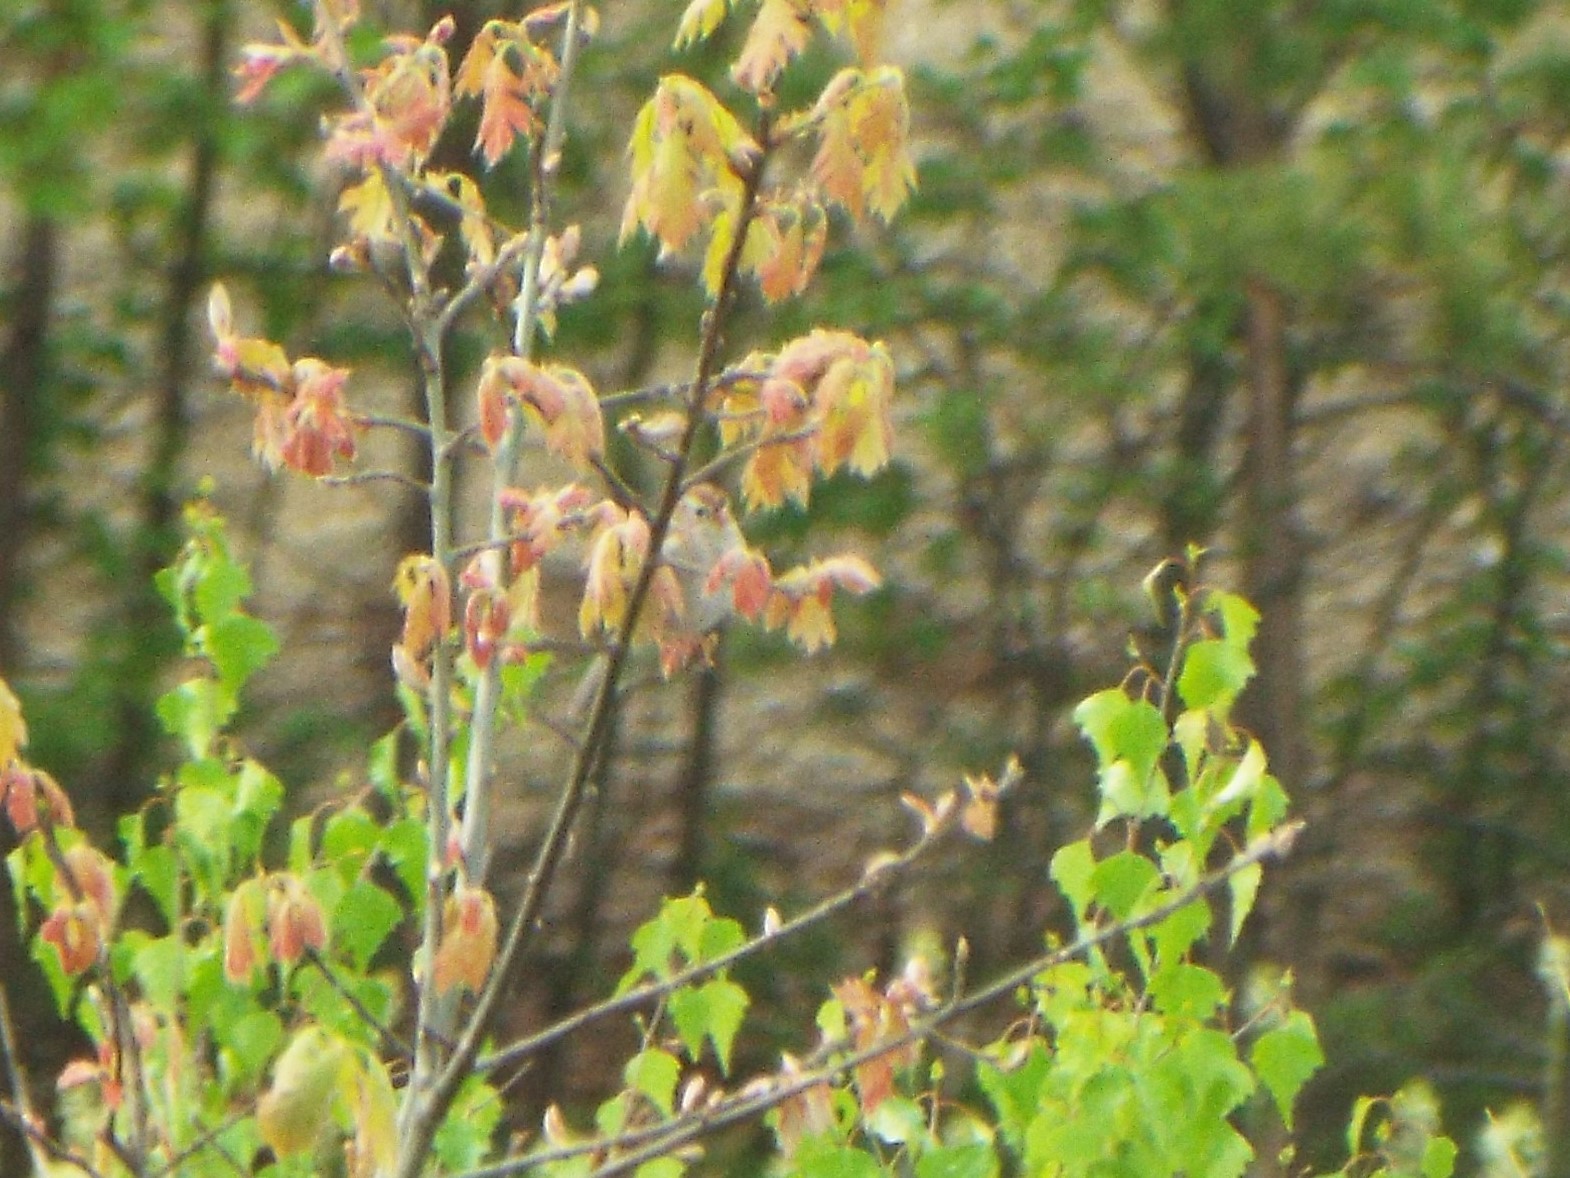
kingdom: Animalia
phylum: Chordata
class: Aves
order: Passeriformes
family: Passerellidae
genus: Spizella
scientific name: Spizella pusilla
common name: Field sparrow
